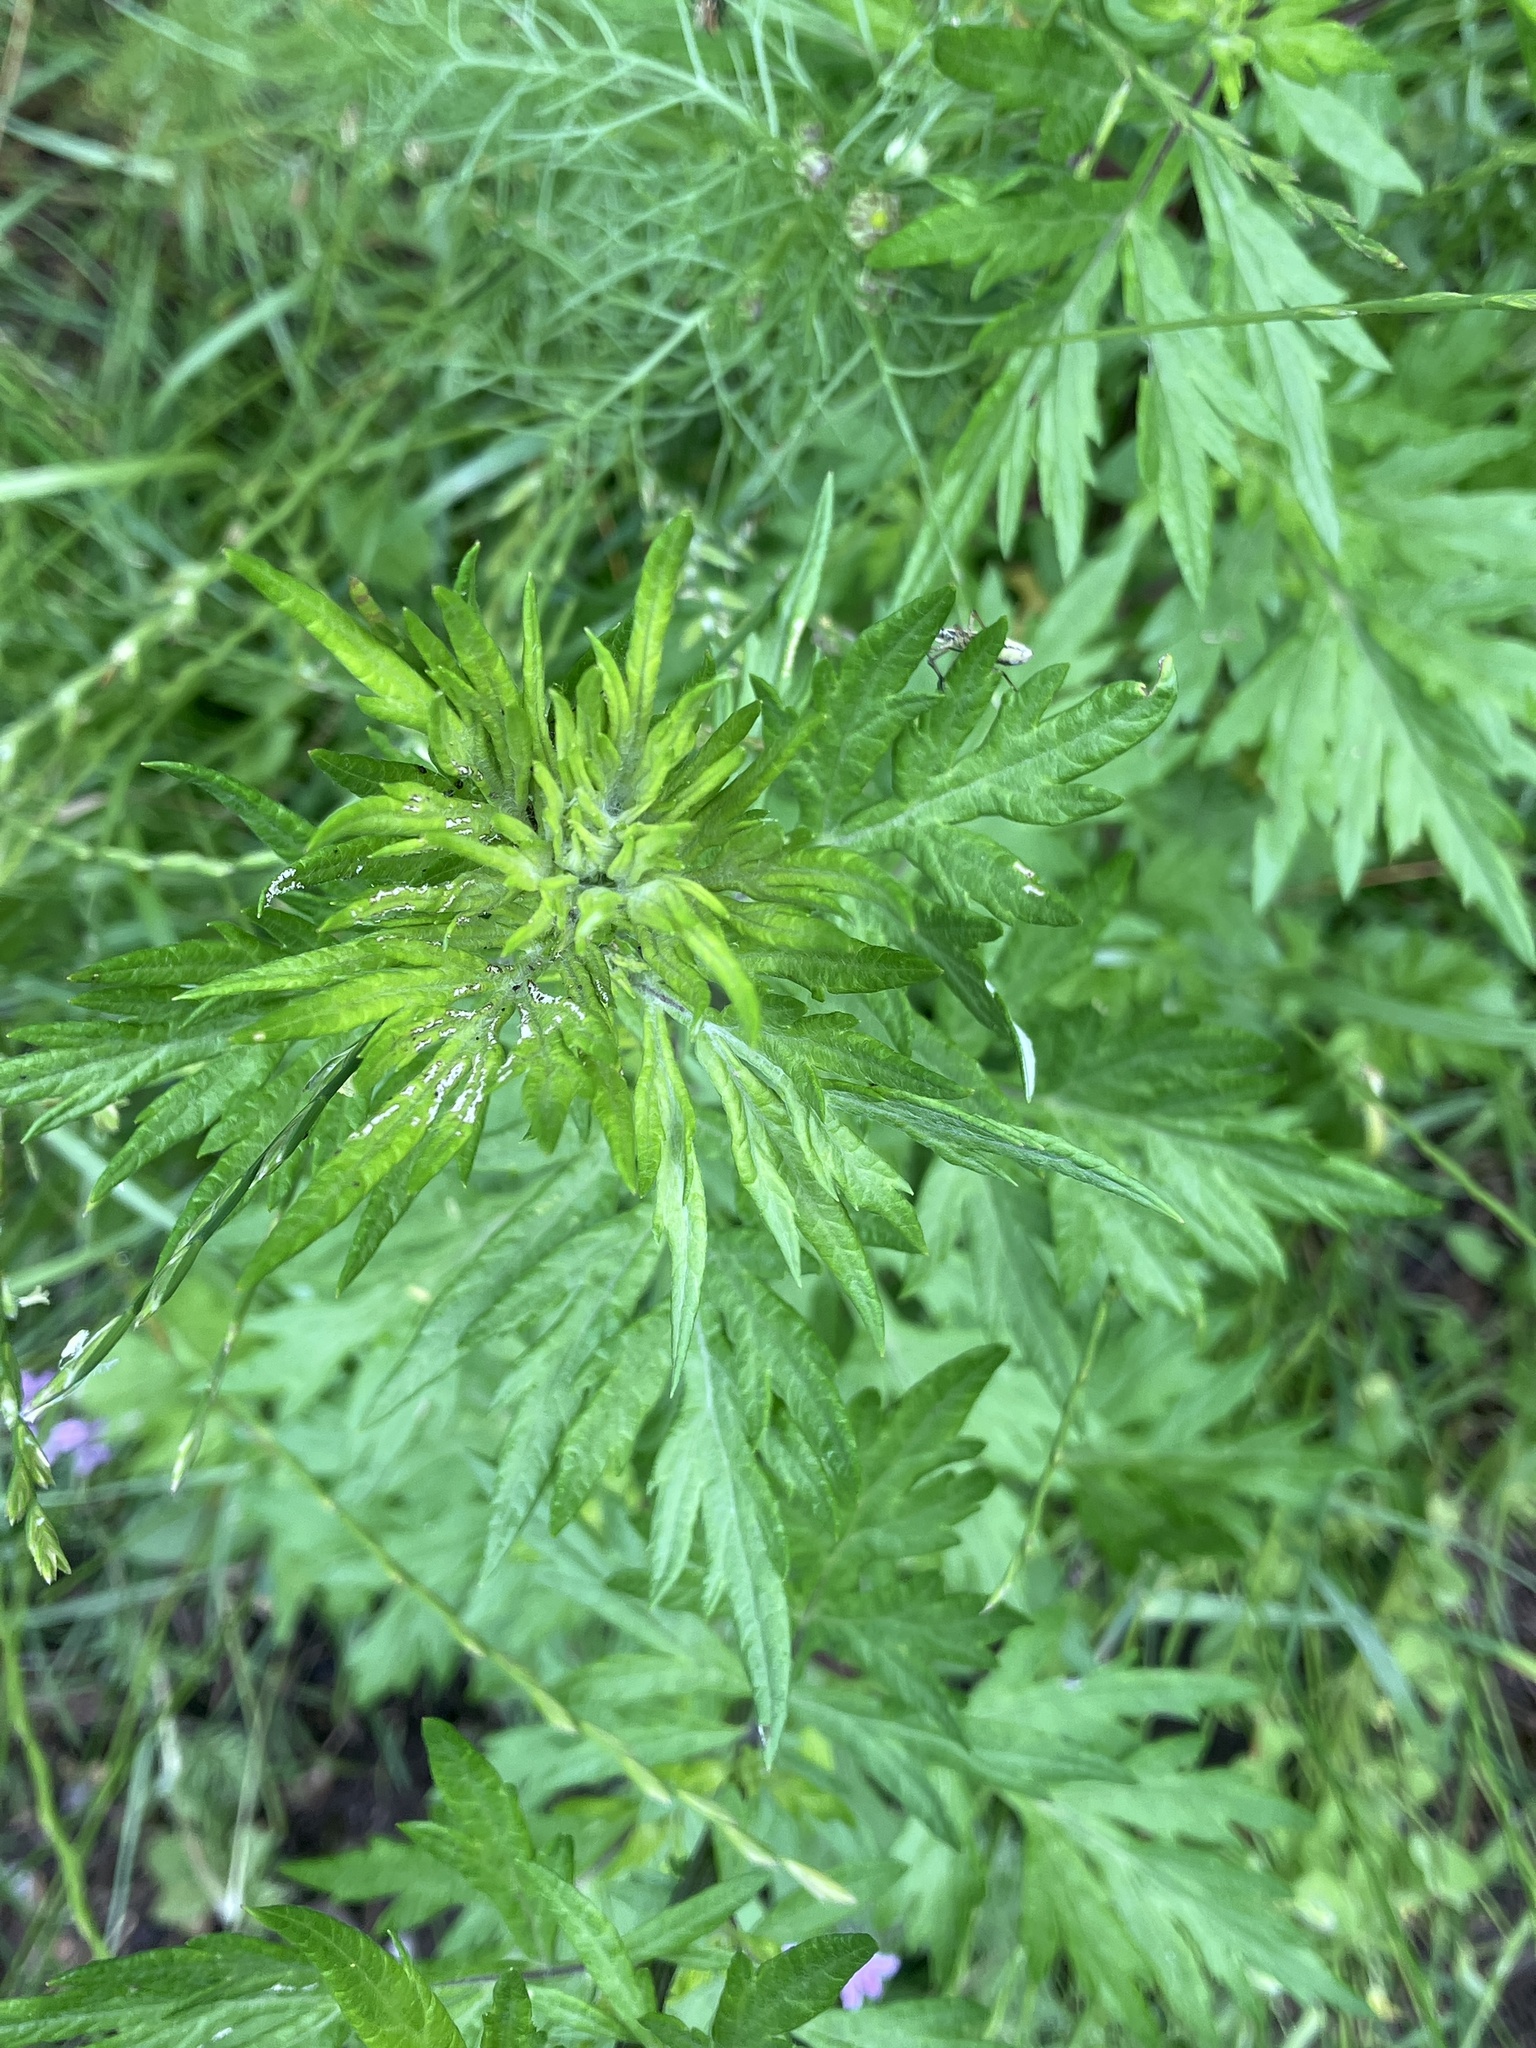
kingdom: Plantae
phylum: Tracheophyta
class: Magnoliopsida
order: Asterales
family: Asteraceae
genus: Artemisia
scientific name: Artemisia vulgaris
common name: Mugwort
